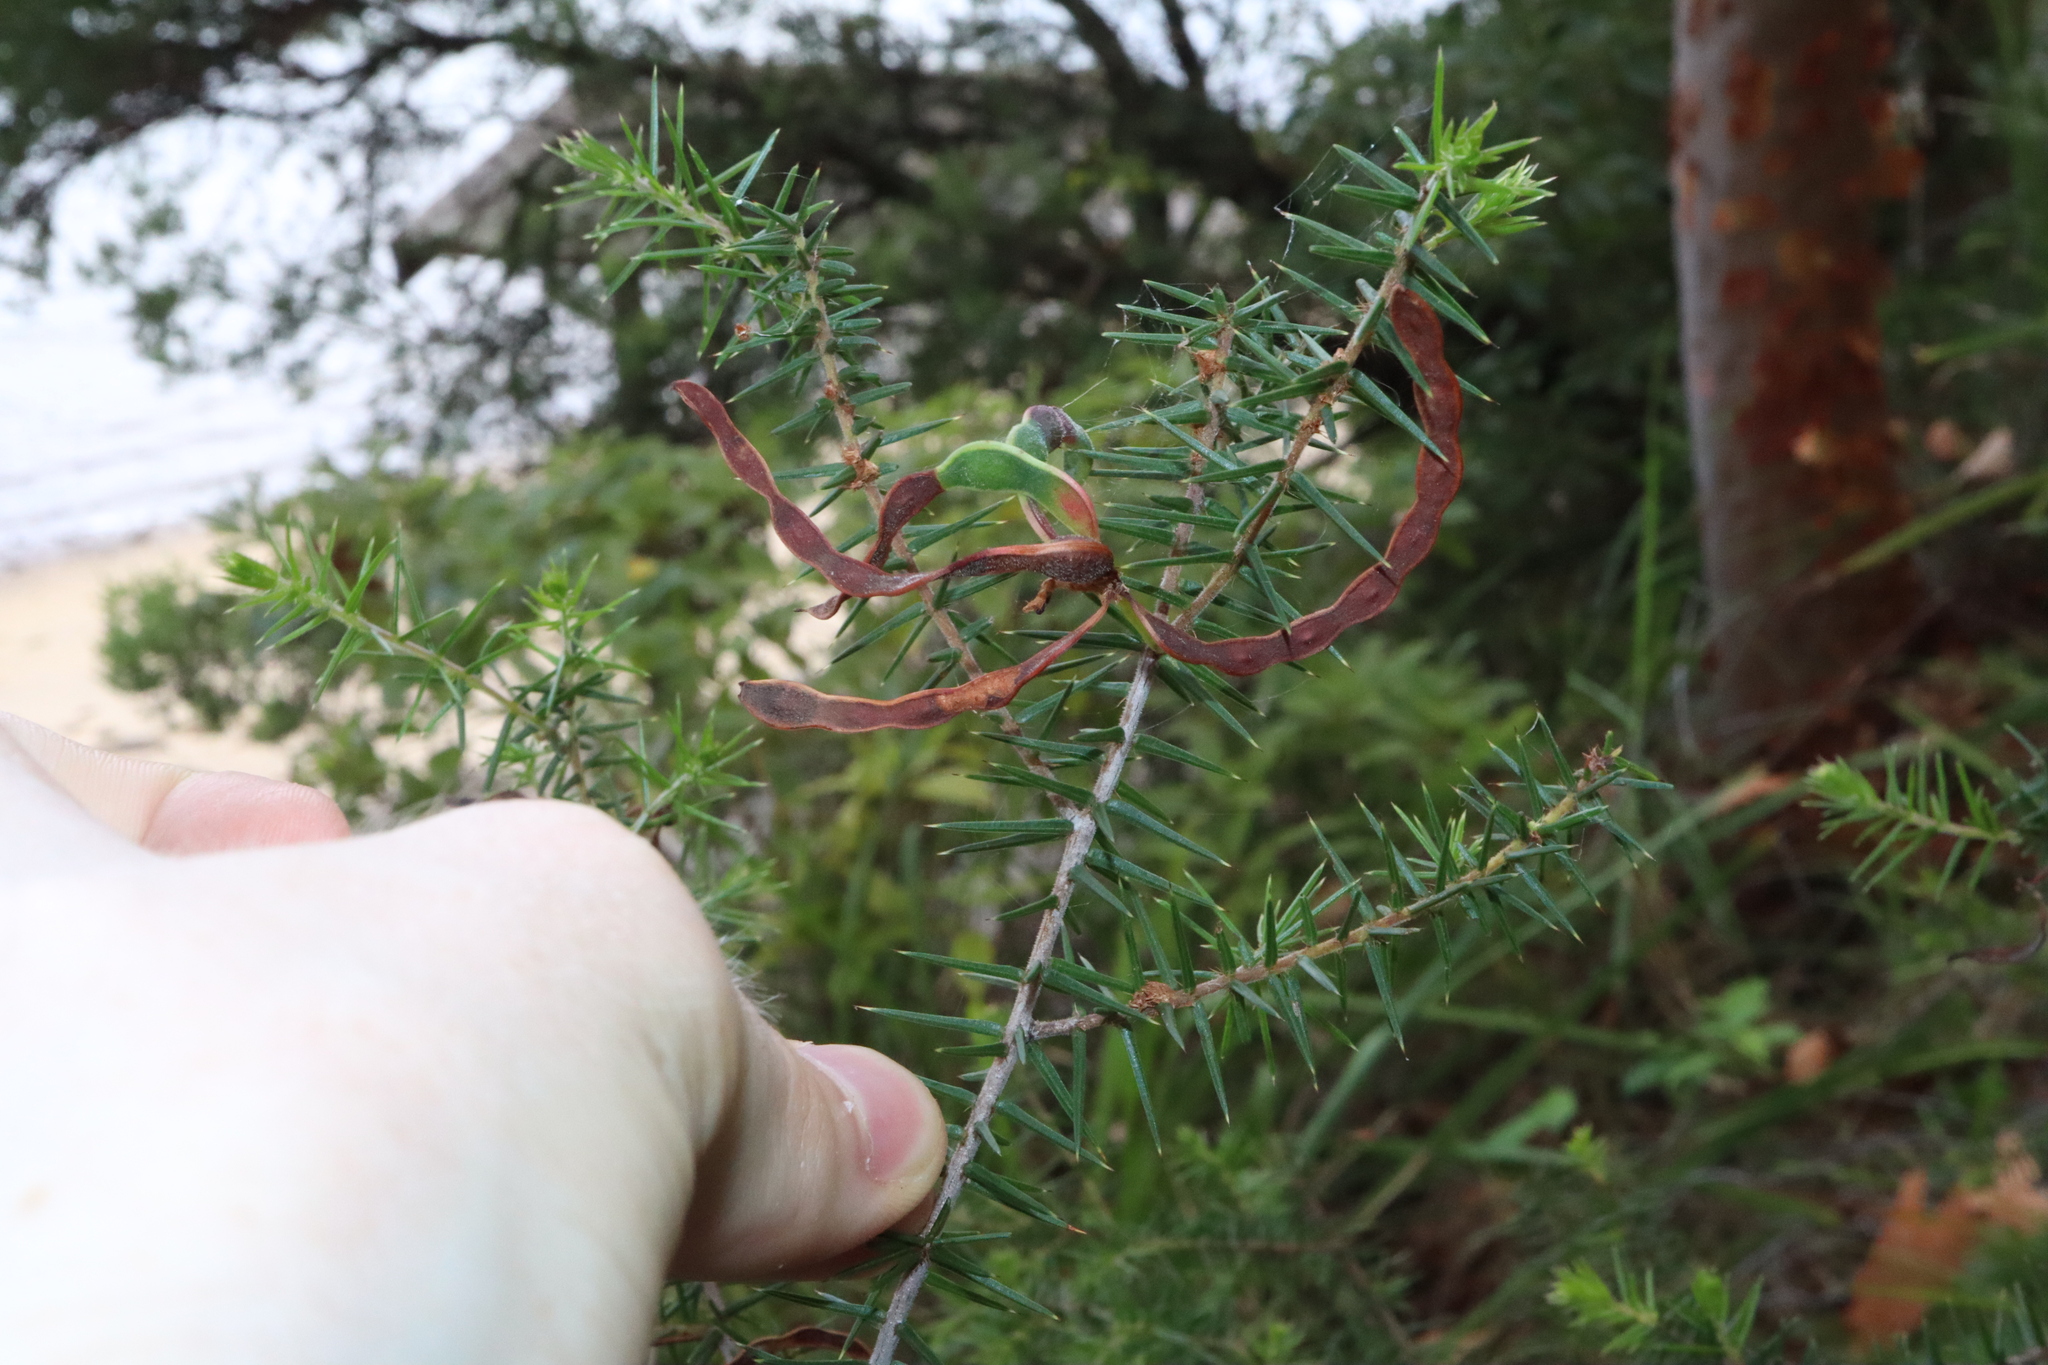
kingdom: Plantae
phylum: Tracheophyta
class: Magnoliopsida
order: Fabales
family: Fabaceae
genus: Acacia
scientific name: Acacia ulicifolia
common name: Juniper wattle
